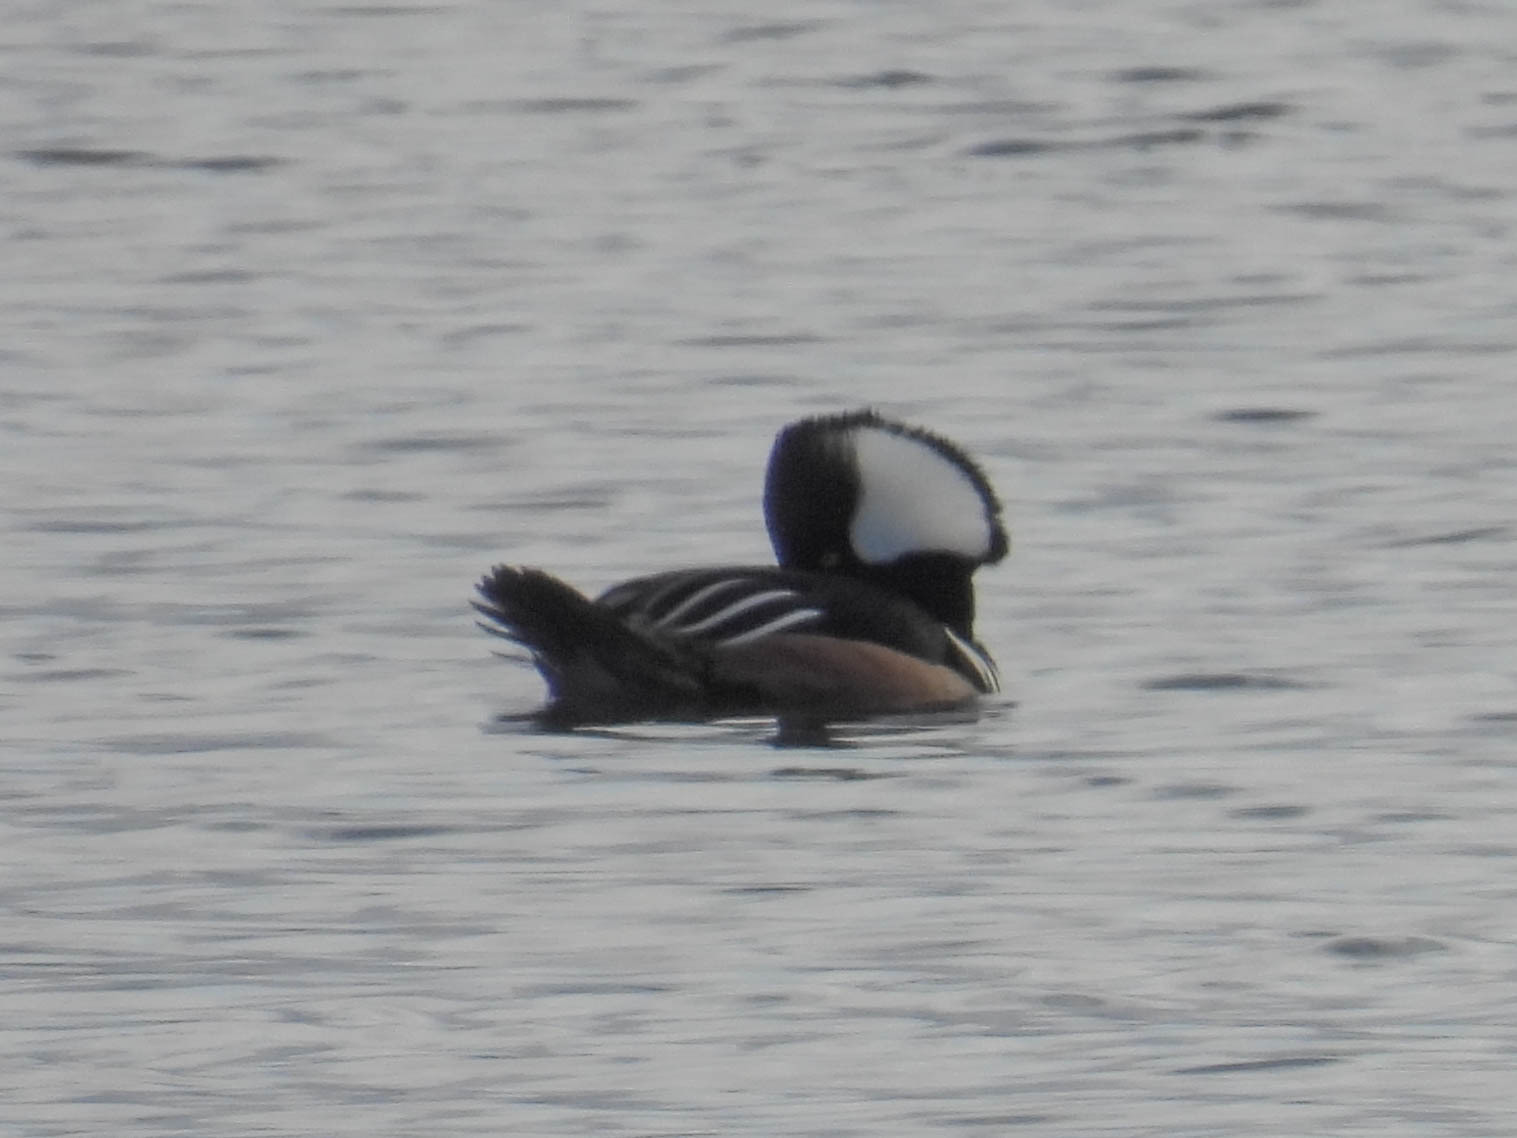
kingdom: Animalia
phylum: Chordata
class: Aves
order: Anseriformes
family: Anatidae
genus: Lophodytes
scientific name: Lophodytes cucullatus
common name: Hooded merganser
